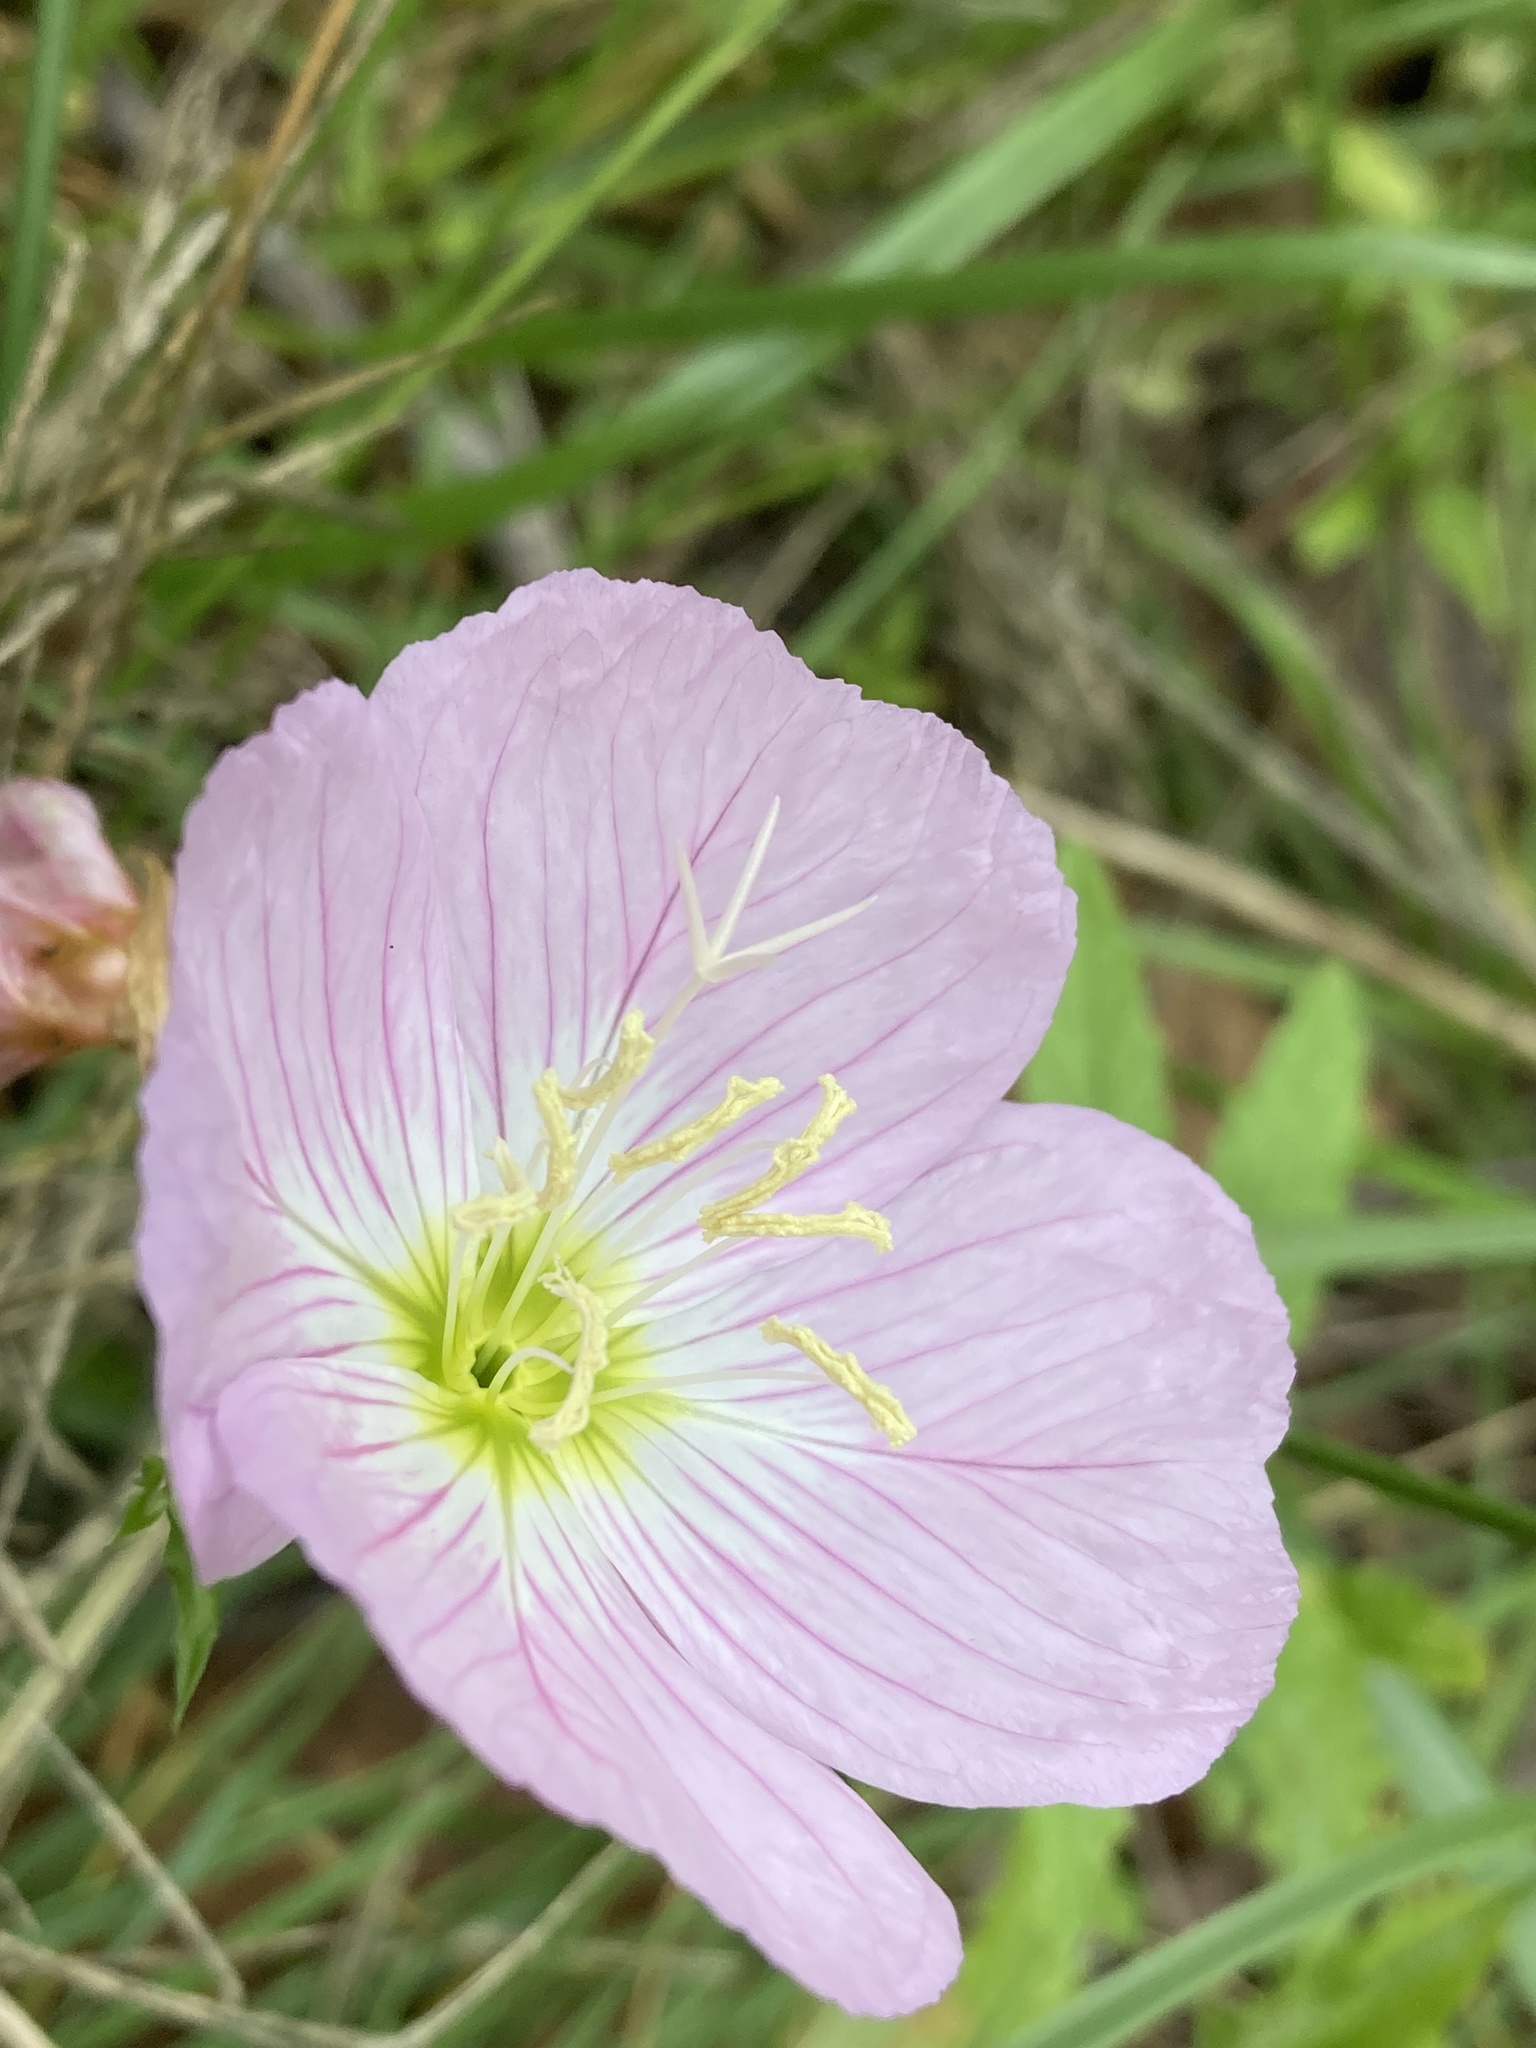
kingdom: Plantae
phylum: Tracheophyta
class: Magnoliopsida
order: Myrtales
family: Onagraceae
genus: Oenothera
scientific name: Oenothera speciosa
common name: White evening-primrose
